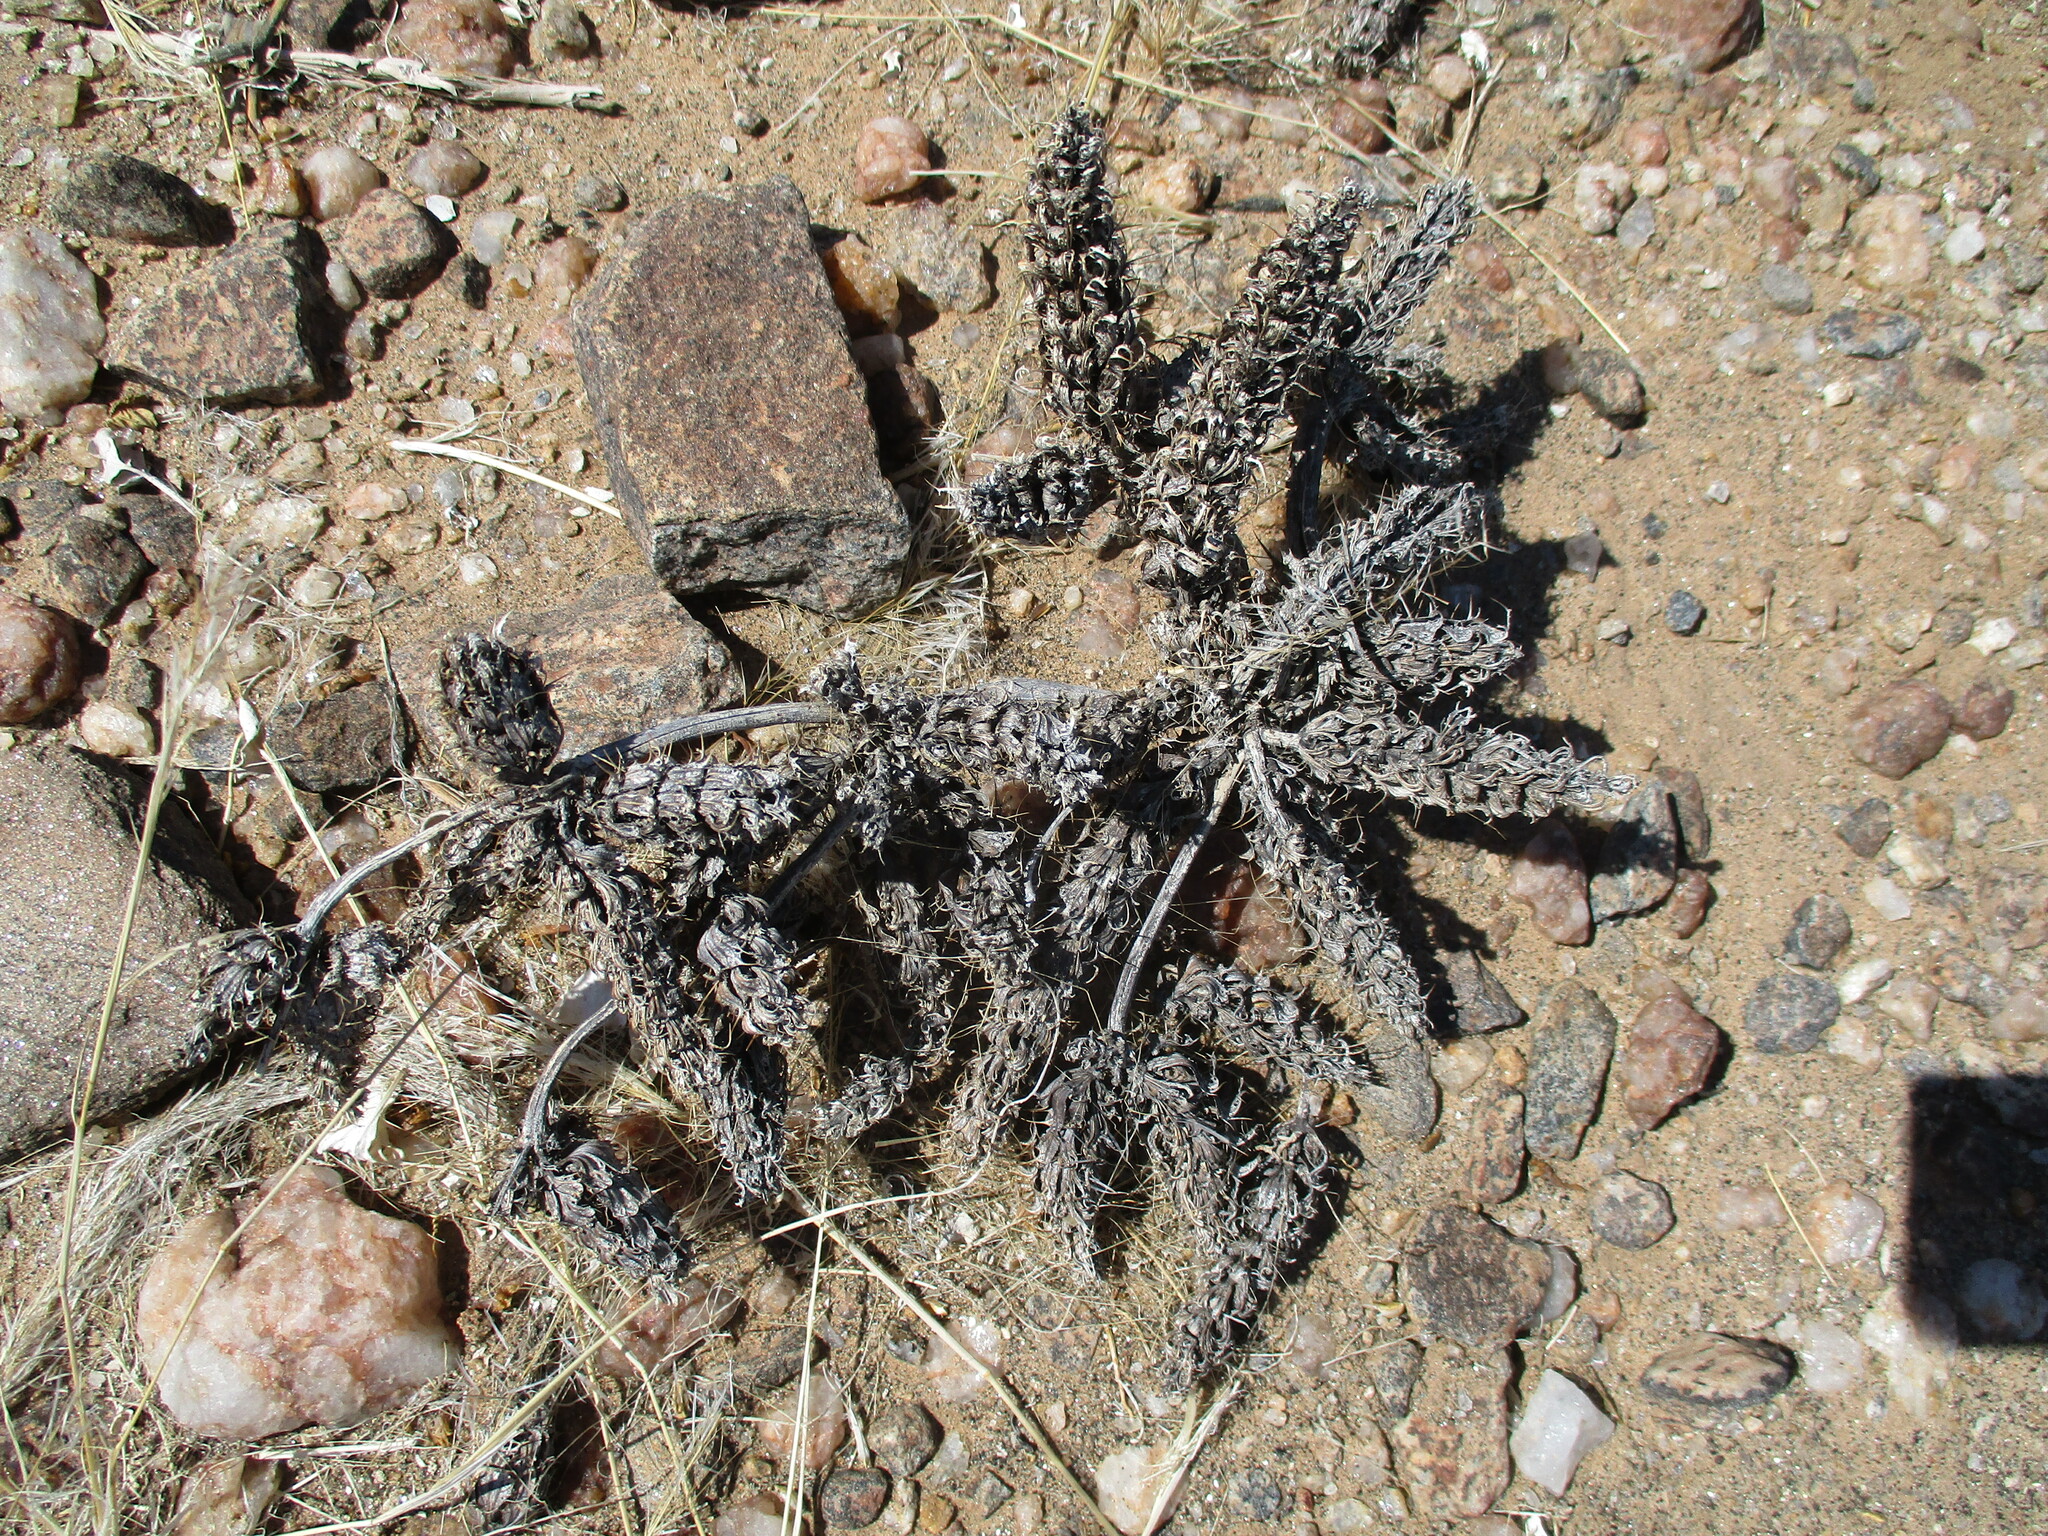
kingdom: Plantae
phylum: Tracheophyta
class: Magnoliopsida
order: Lamiales
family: Acanthaceae
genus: Blepharis
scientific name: Blepharis grossa
